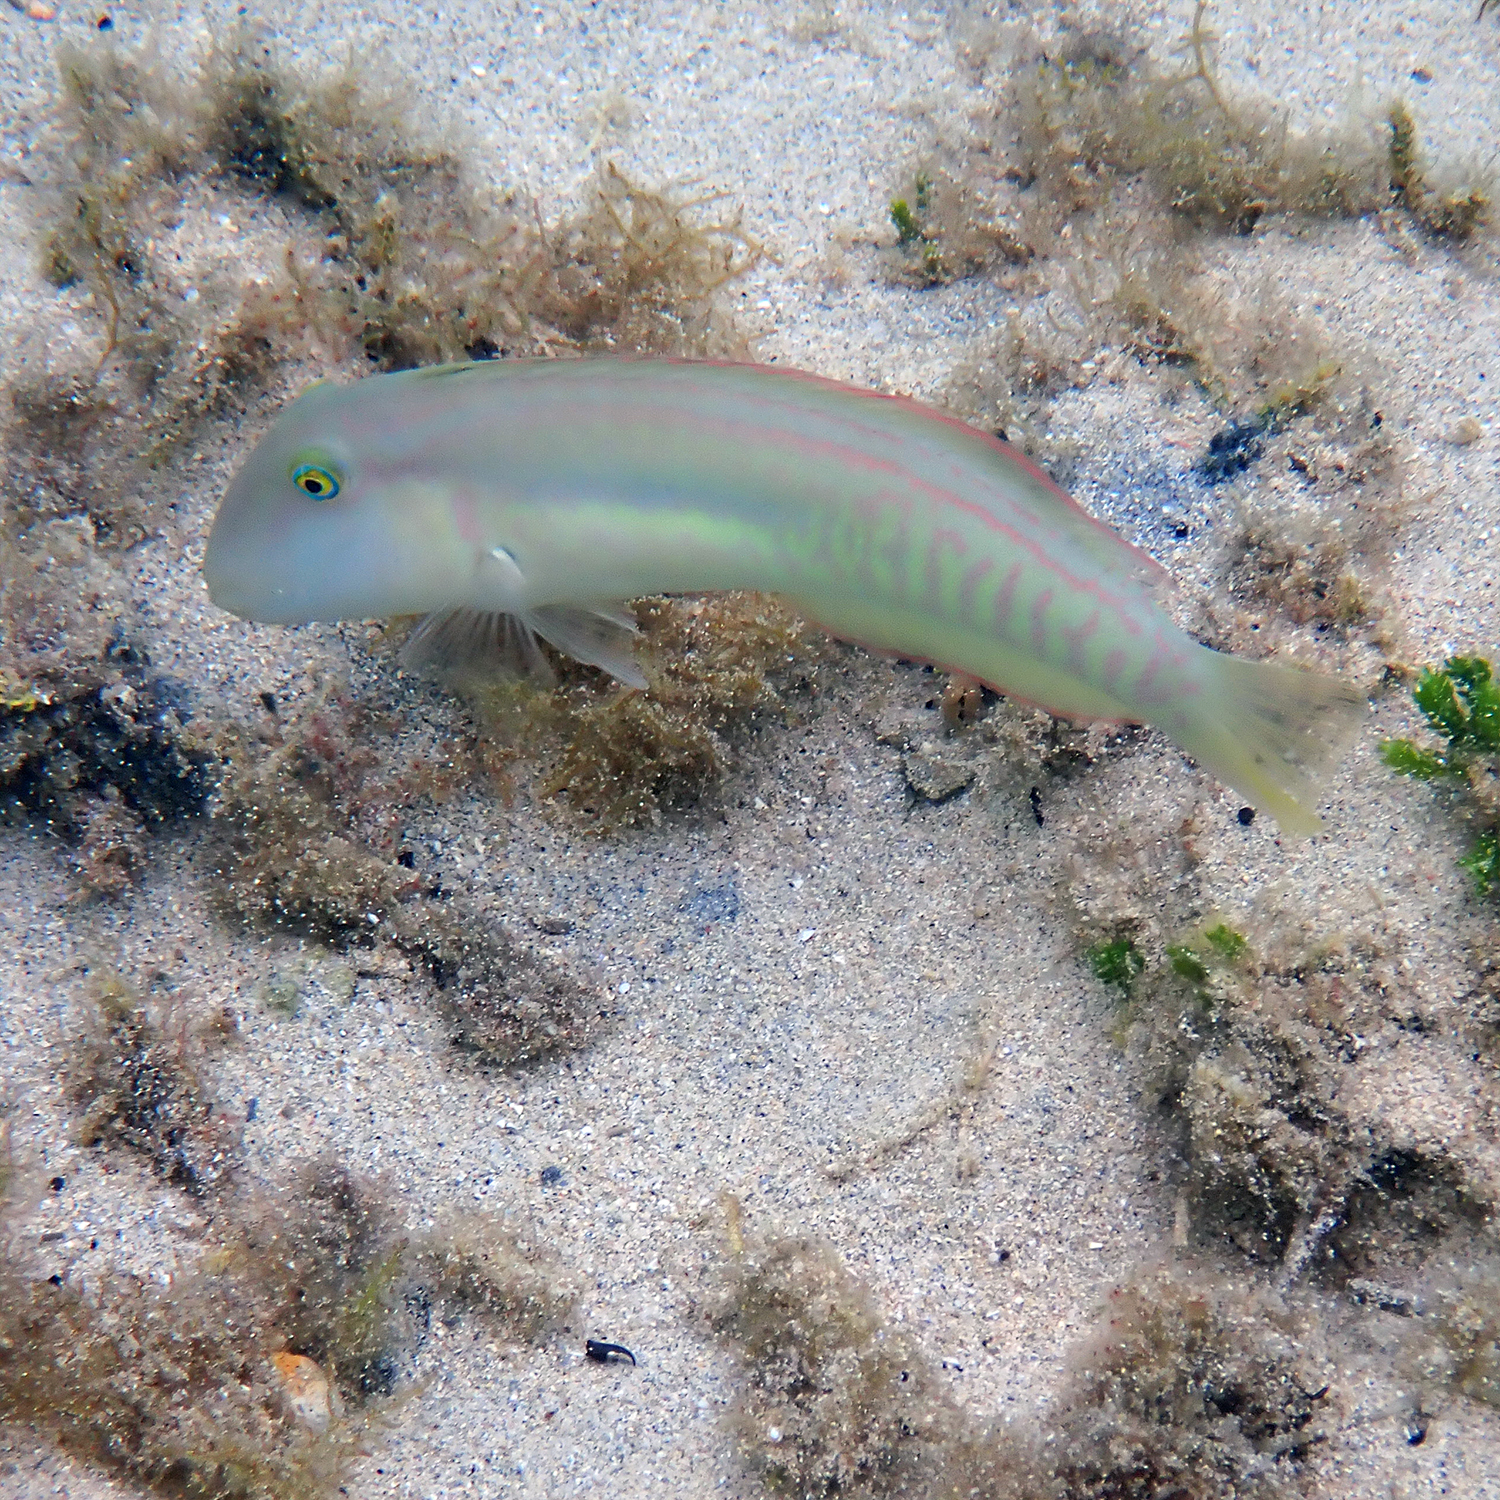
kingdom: Animalia
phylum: Chordata
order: Perciformes
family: Labridae
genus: Cymolutes
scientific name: Cymolutes praetextatus
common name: Knife razorfish
